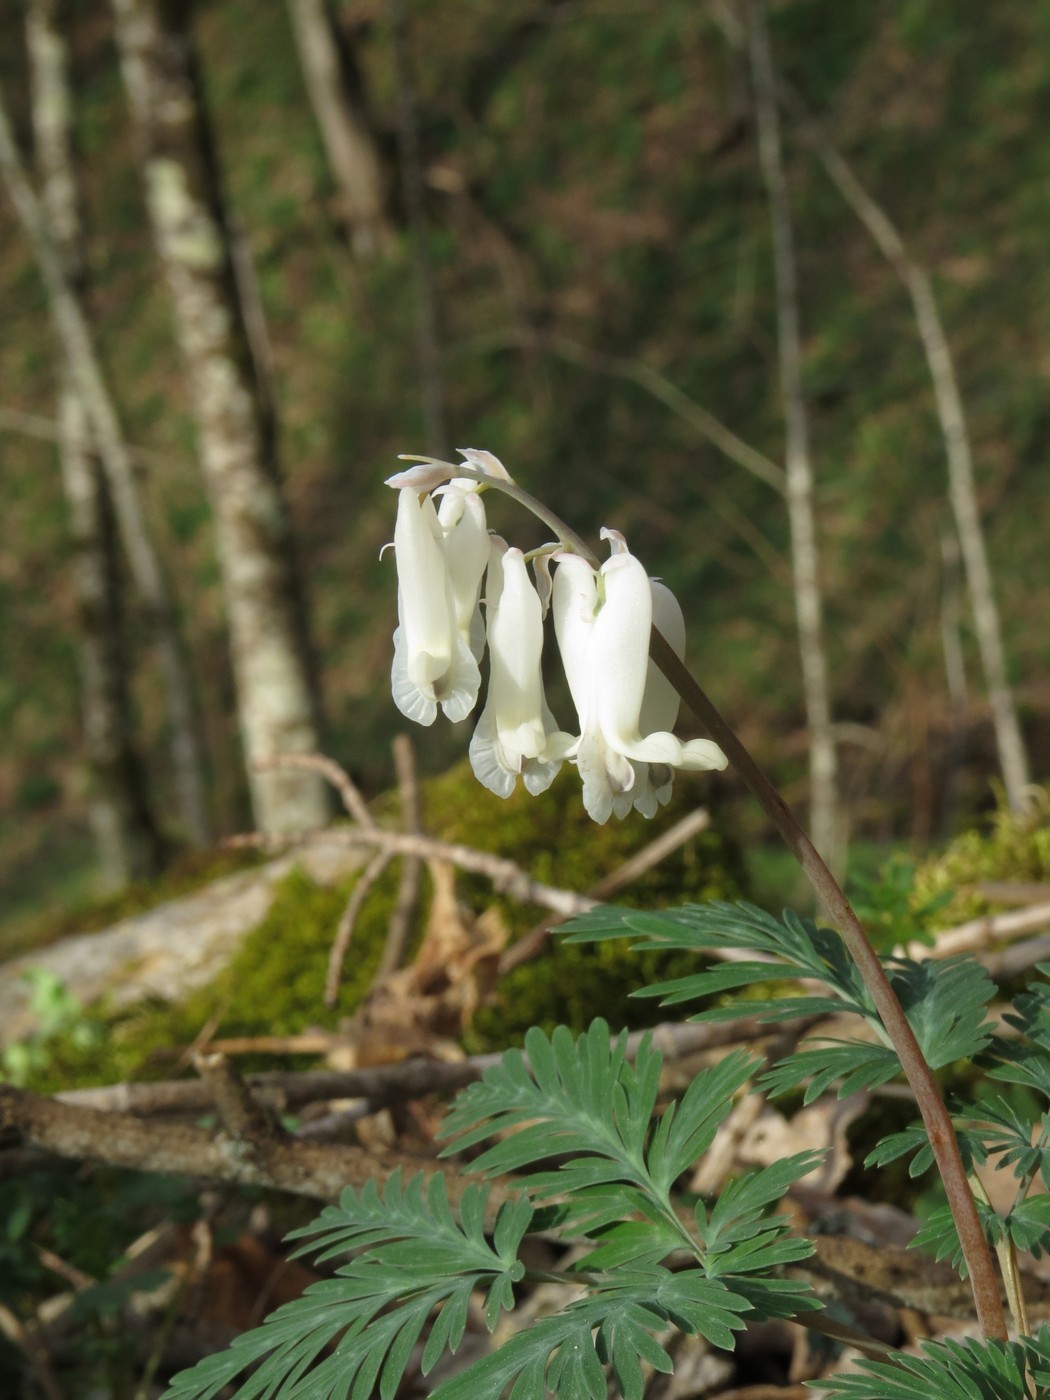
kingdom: Plantae
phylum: Tracheophyta
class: Magnoliopsida
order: Ranunculales
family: Papaveraceae
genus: Dicentra
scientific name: Dicentra canadensis
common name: Squirrel-corn
